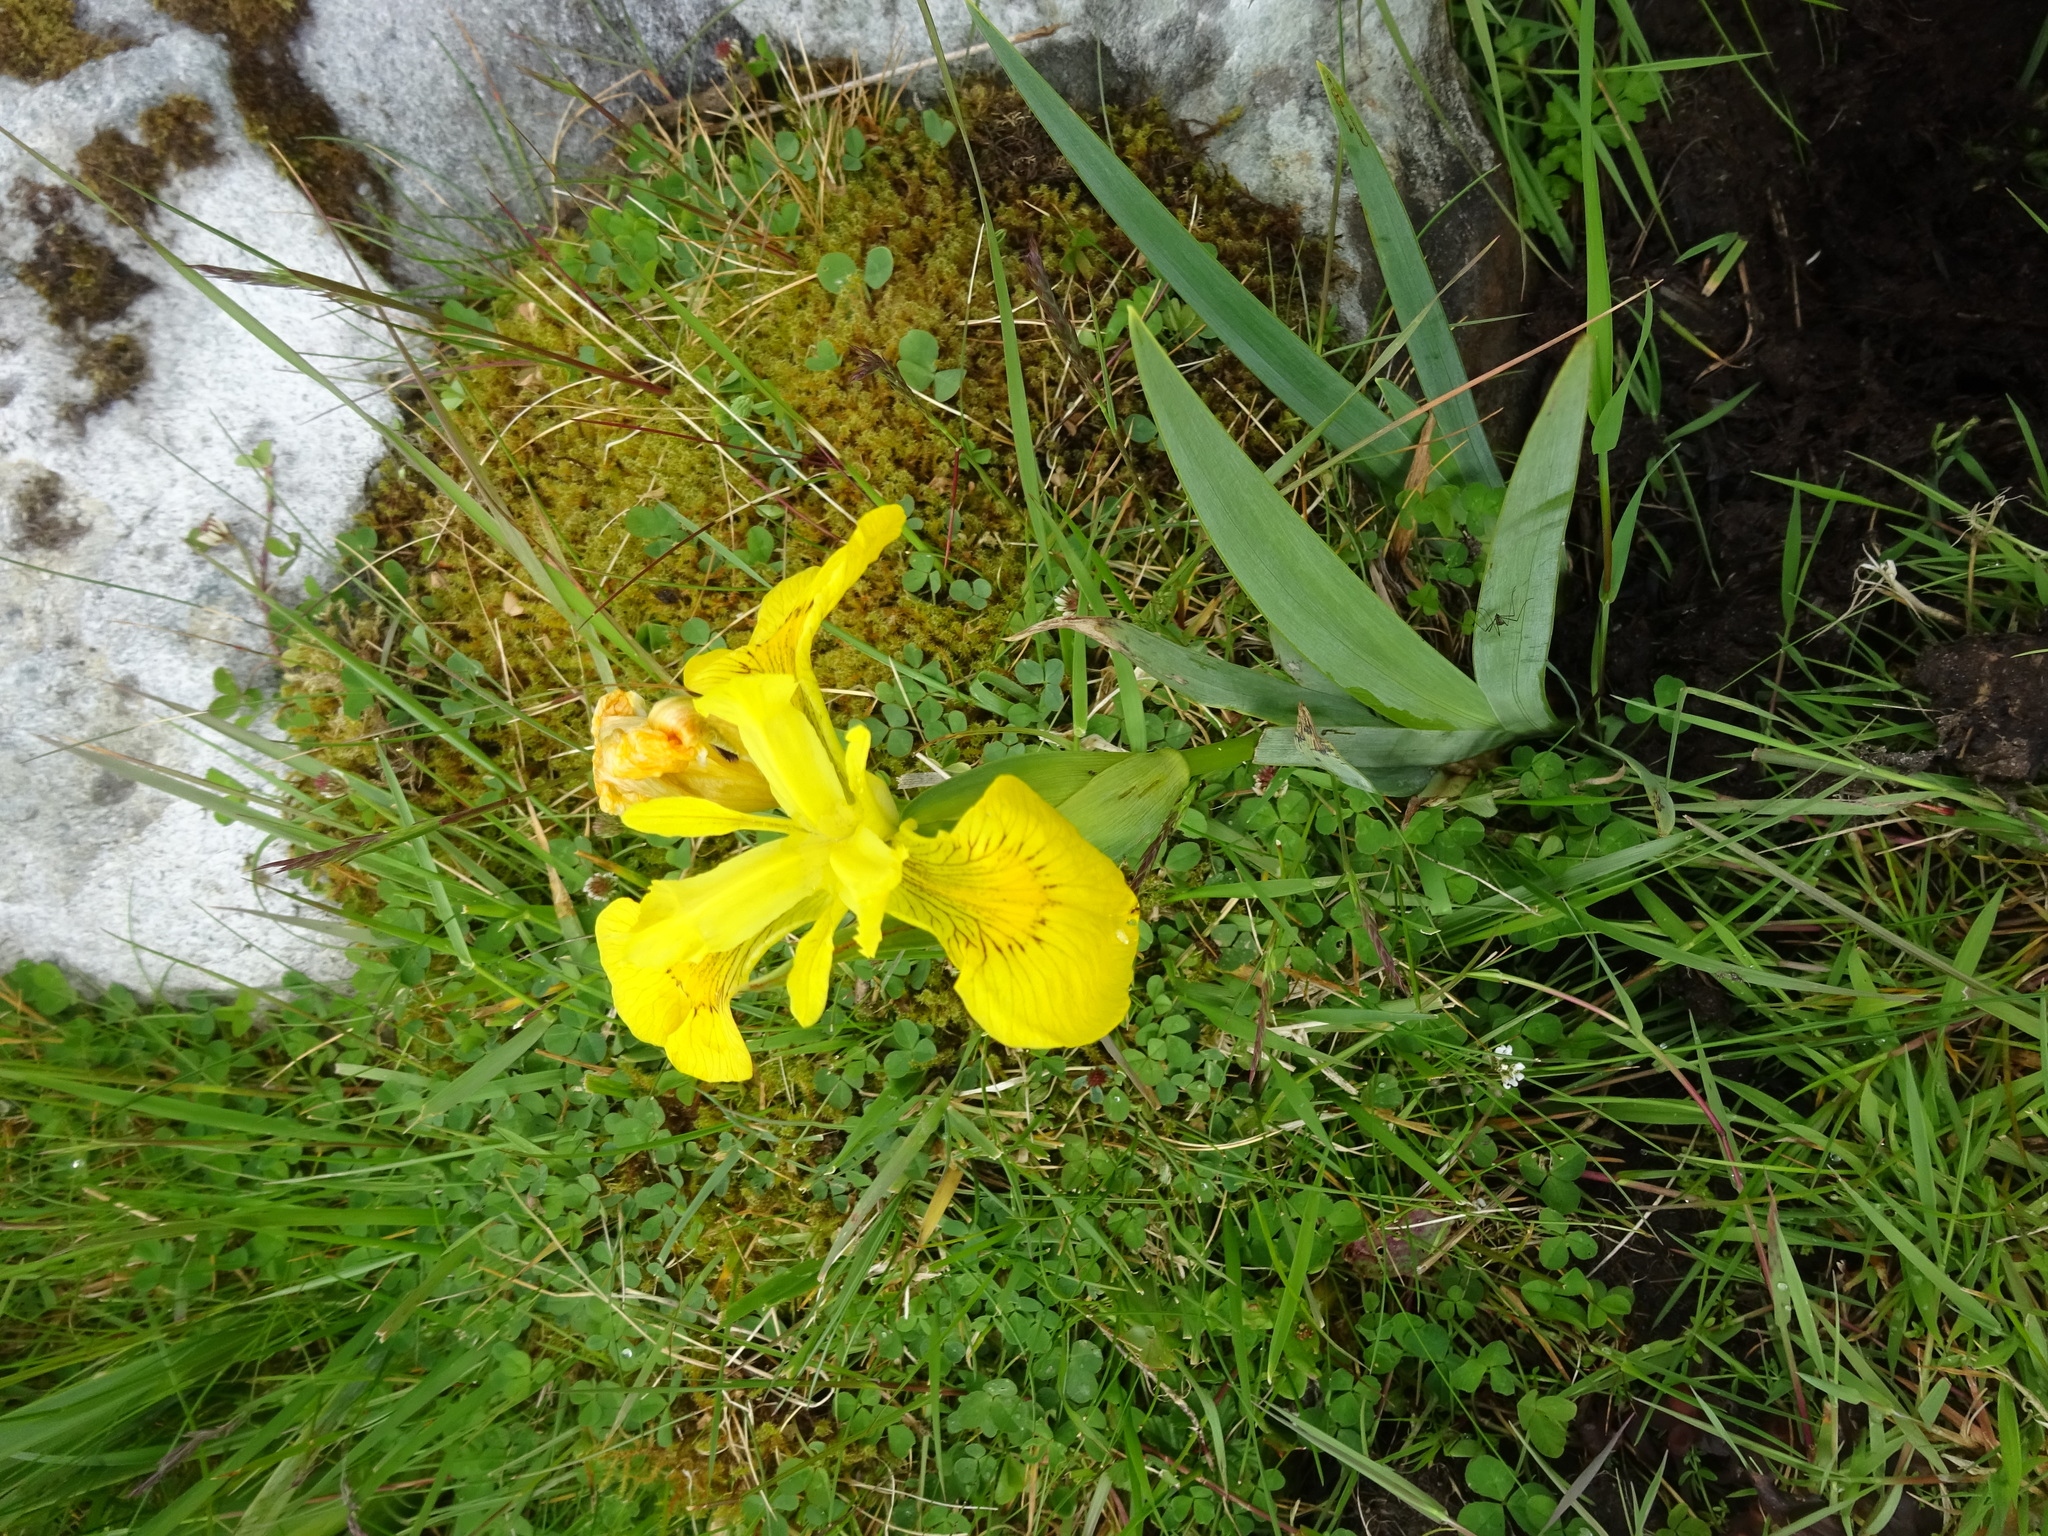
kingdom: Plantae
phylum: Tracheophyta
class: Liliopsida
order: Asparagales
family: Iridaceae
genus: Iris
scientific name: Iris pseudacorus
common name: Yellow flag
